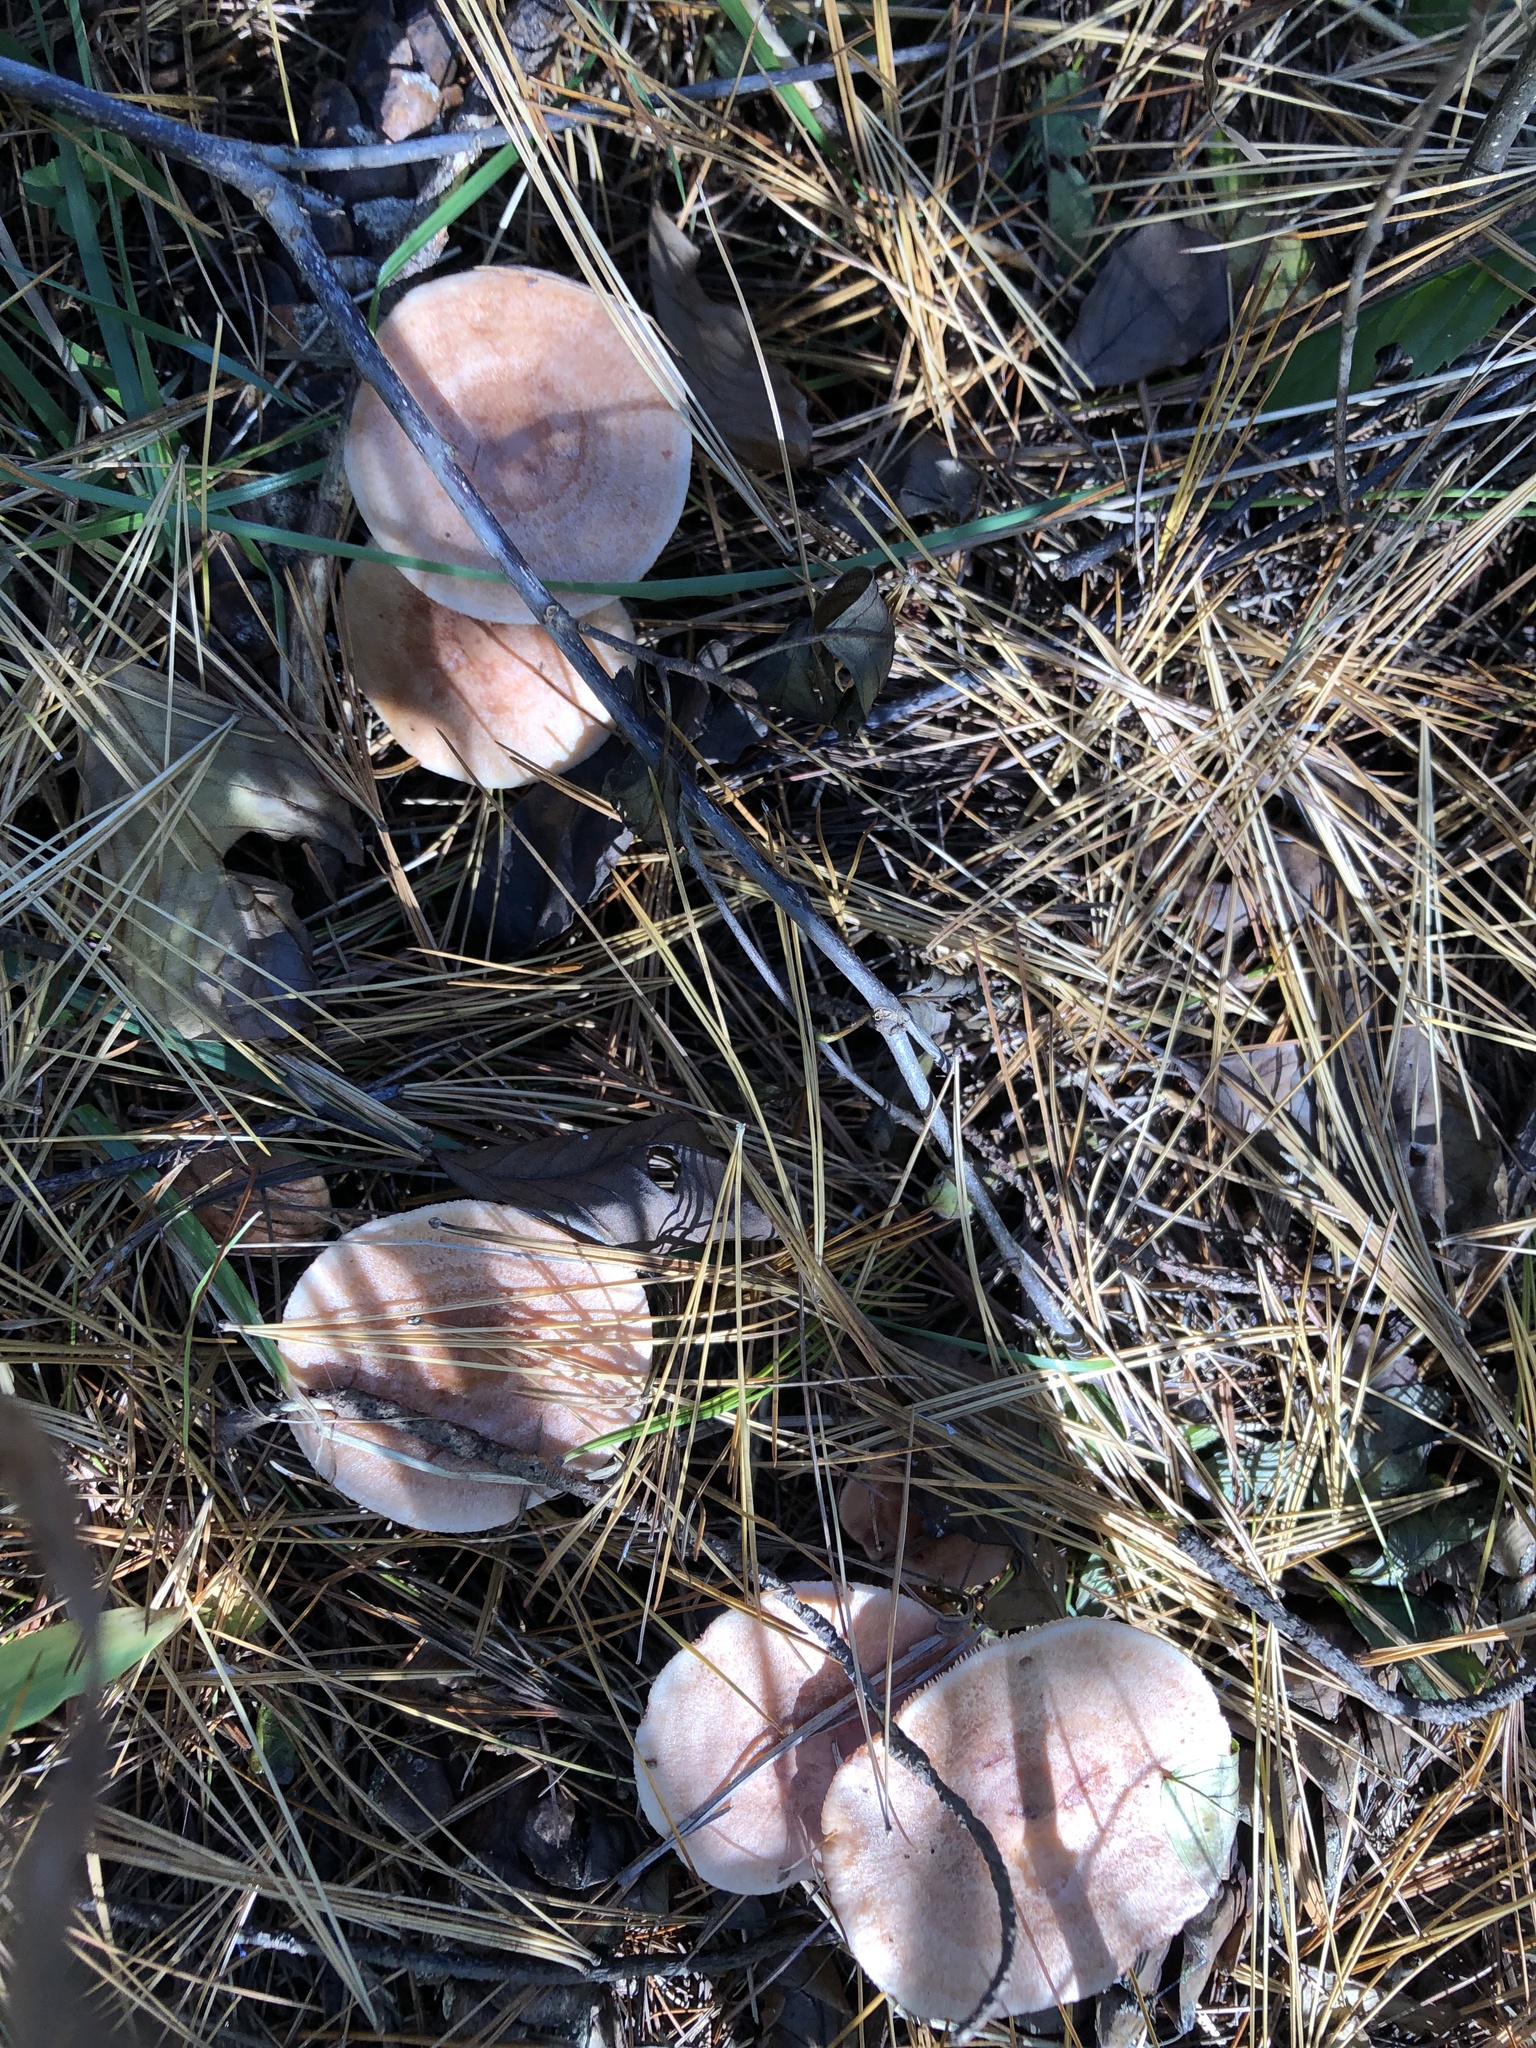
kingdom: Fungi
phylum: Basidiomycota
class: Agaricomycetes
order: Russulales
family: Russulaceae
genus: Lactarius
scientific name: Lactarius vinaceorufescens
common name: Yellow-latex milkcap
